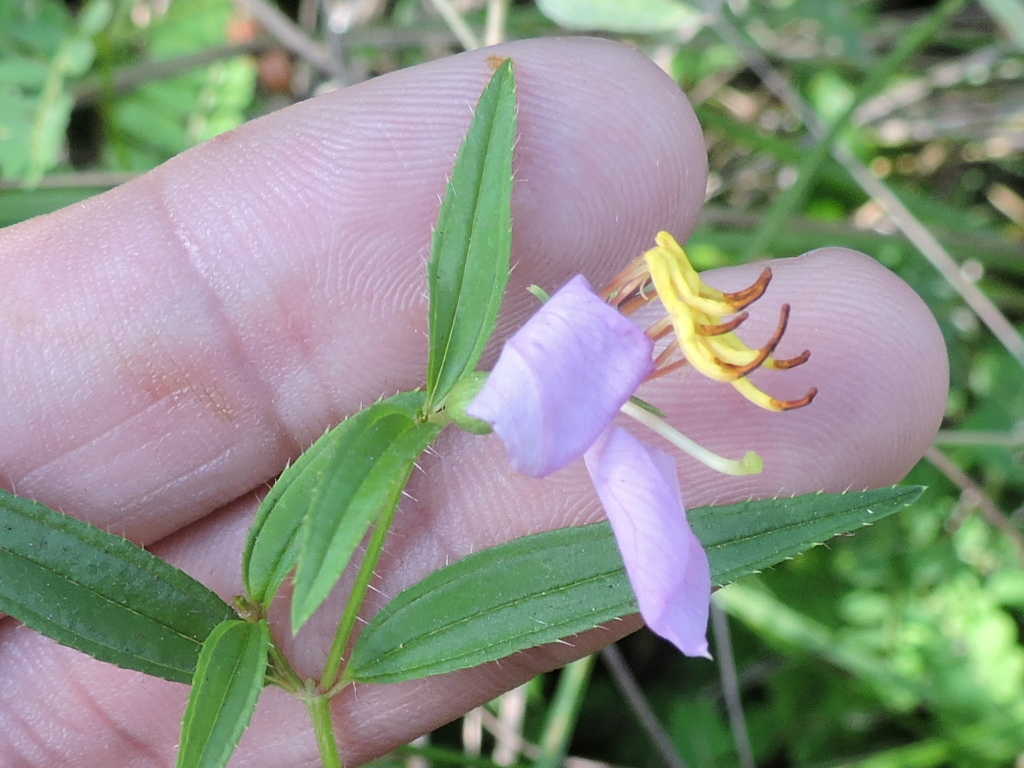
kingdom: Plantae
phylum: Tracheophyta
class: Magnoliopsida
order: Myrtales
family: Melastomataceae
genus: Rhexia
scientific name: Rhexia mariana
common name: Dull meadow-pitcher
